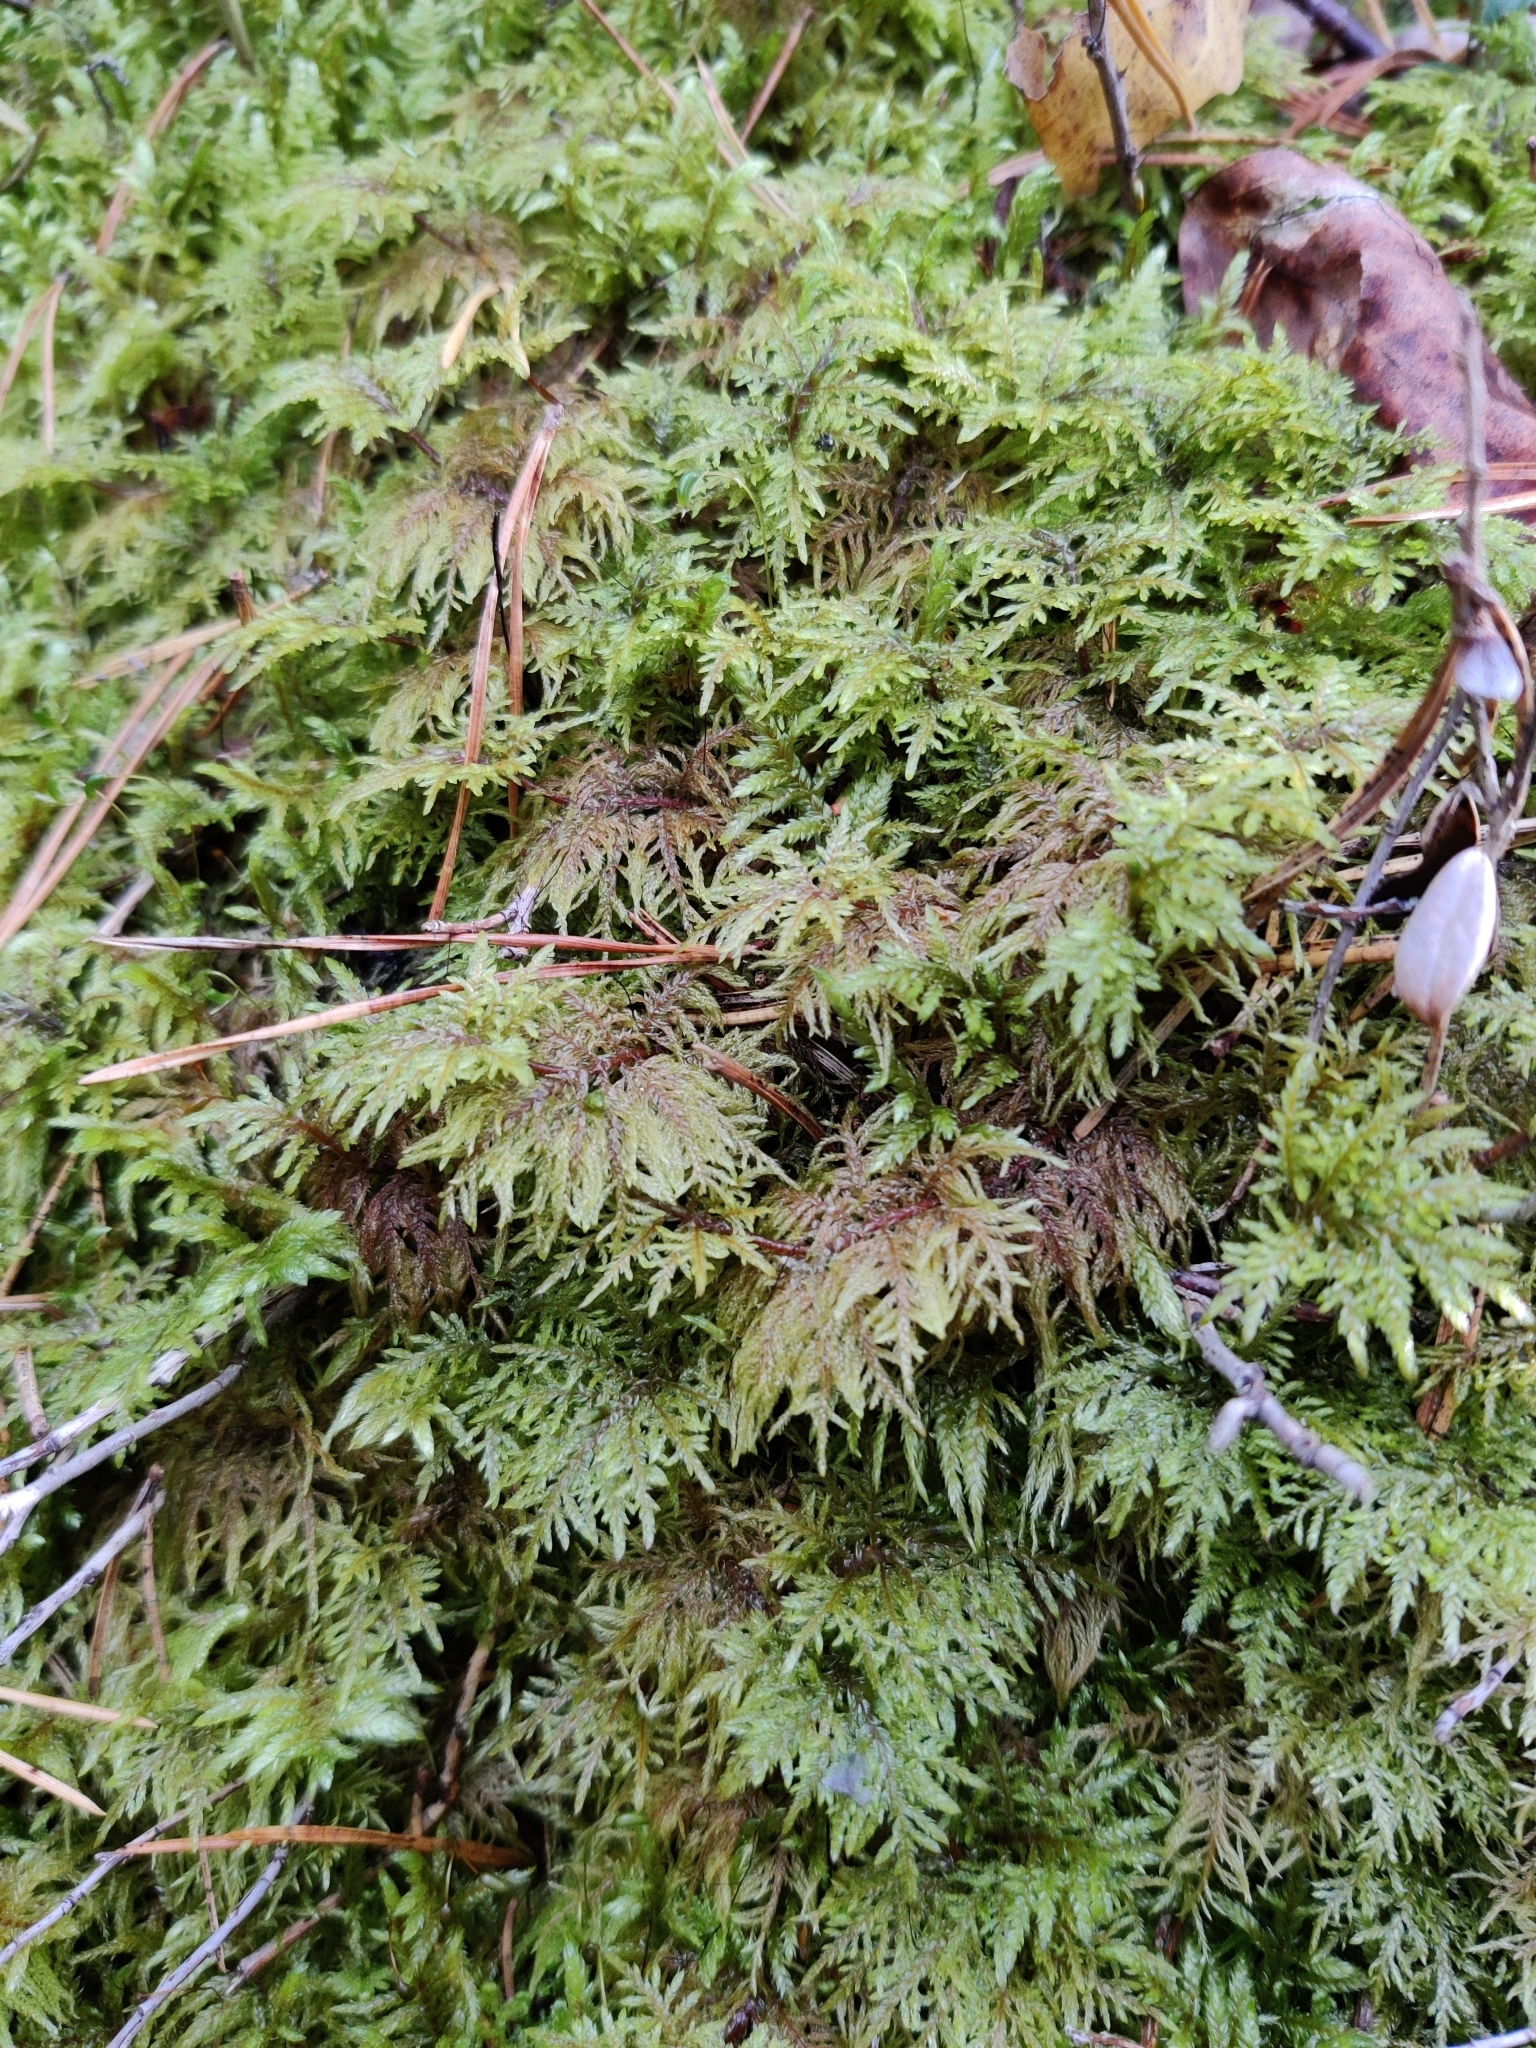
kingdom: Plantae
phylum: Bryophyta
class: Bryopsida
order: Hypnales
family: Hylocomiaceae
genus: Hylocomium
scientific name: Hylocomium splendens
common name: Stairstep moss
